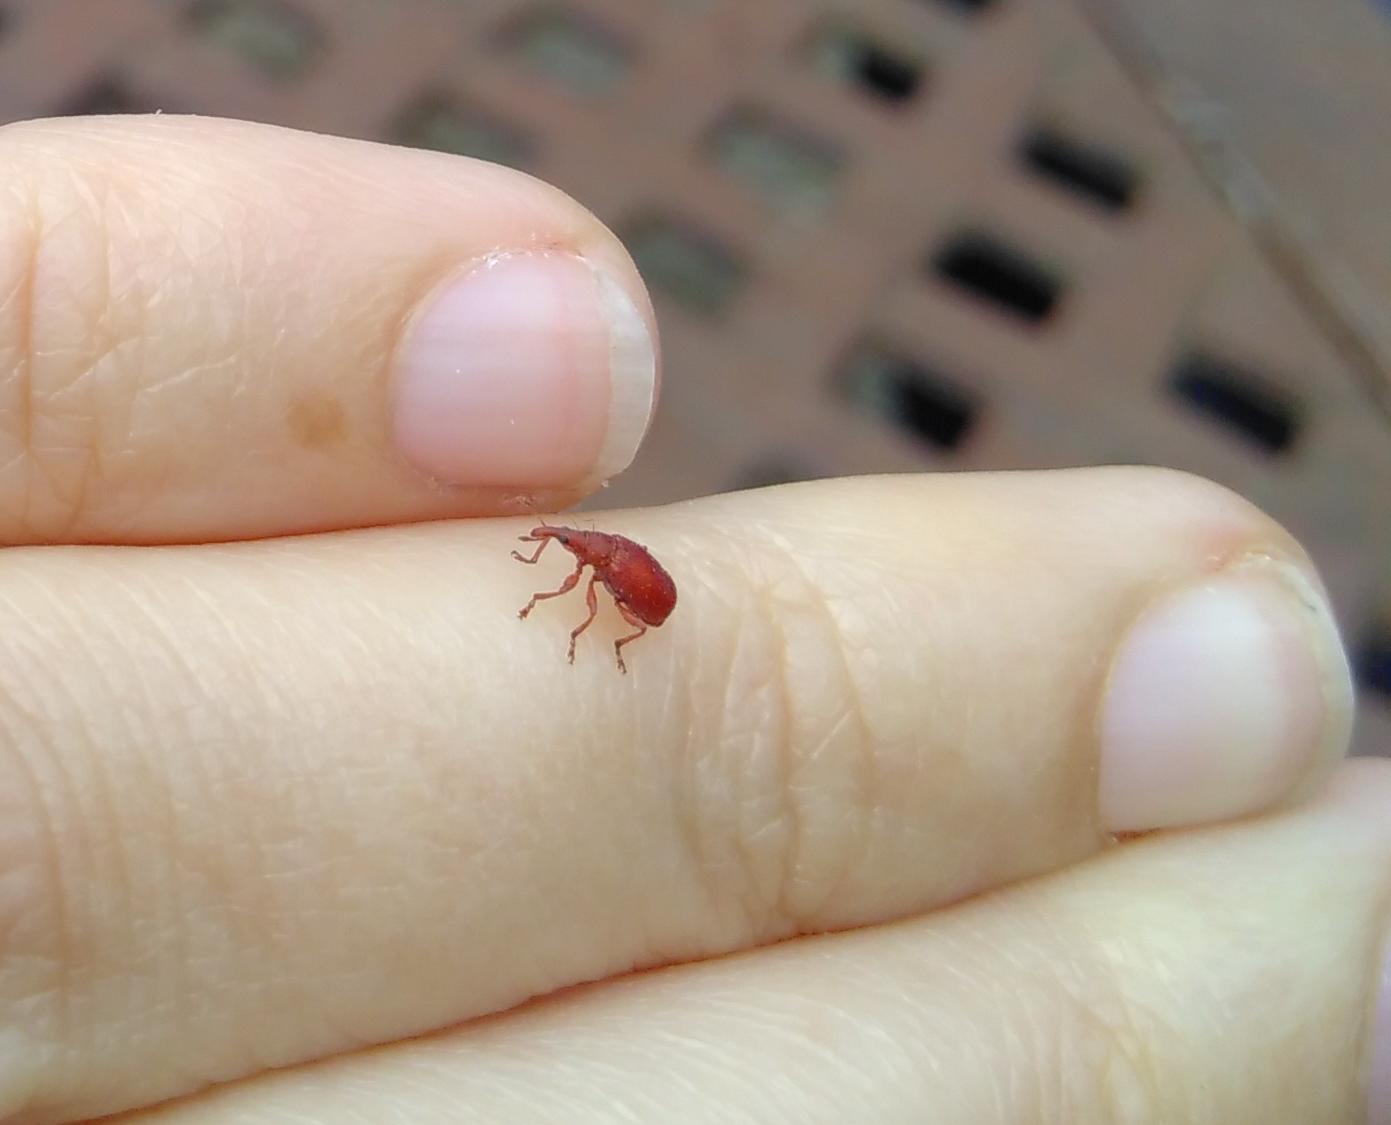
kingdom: Animalia
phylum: Arthropoda
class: Insecta
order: Coleoptera
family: Apionidae
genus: Apion
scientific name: Apion frumentarium
